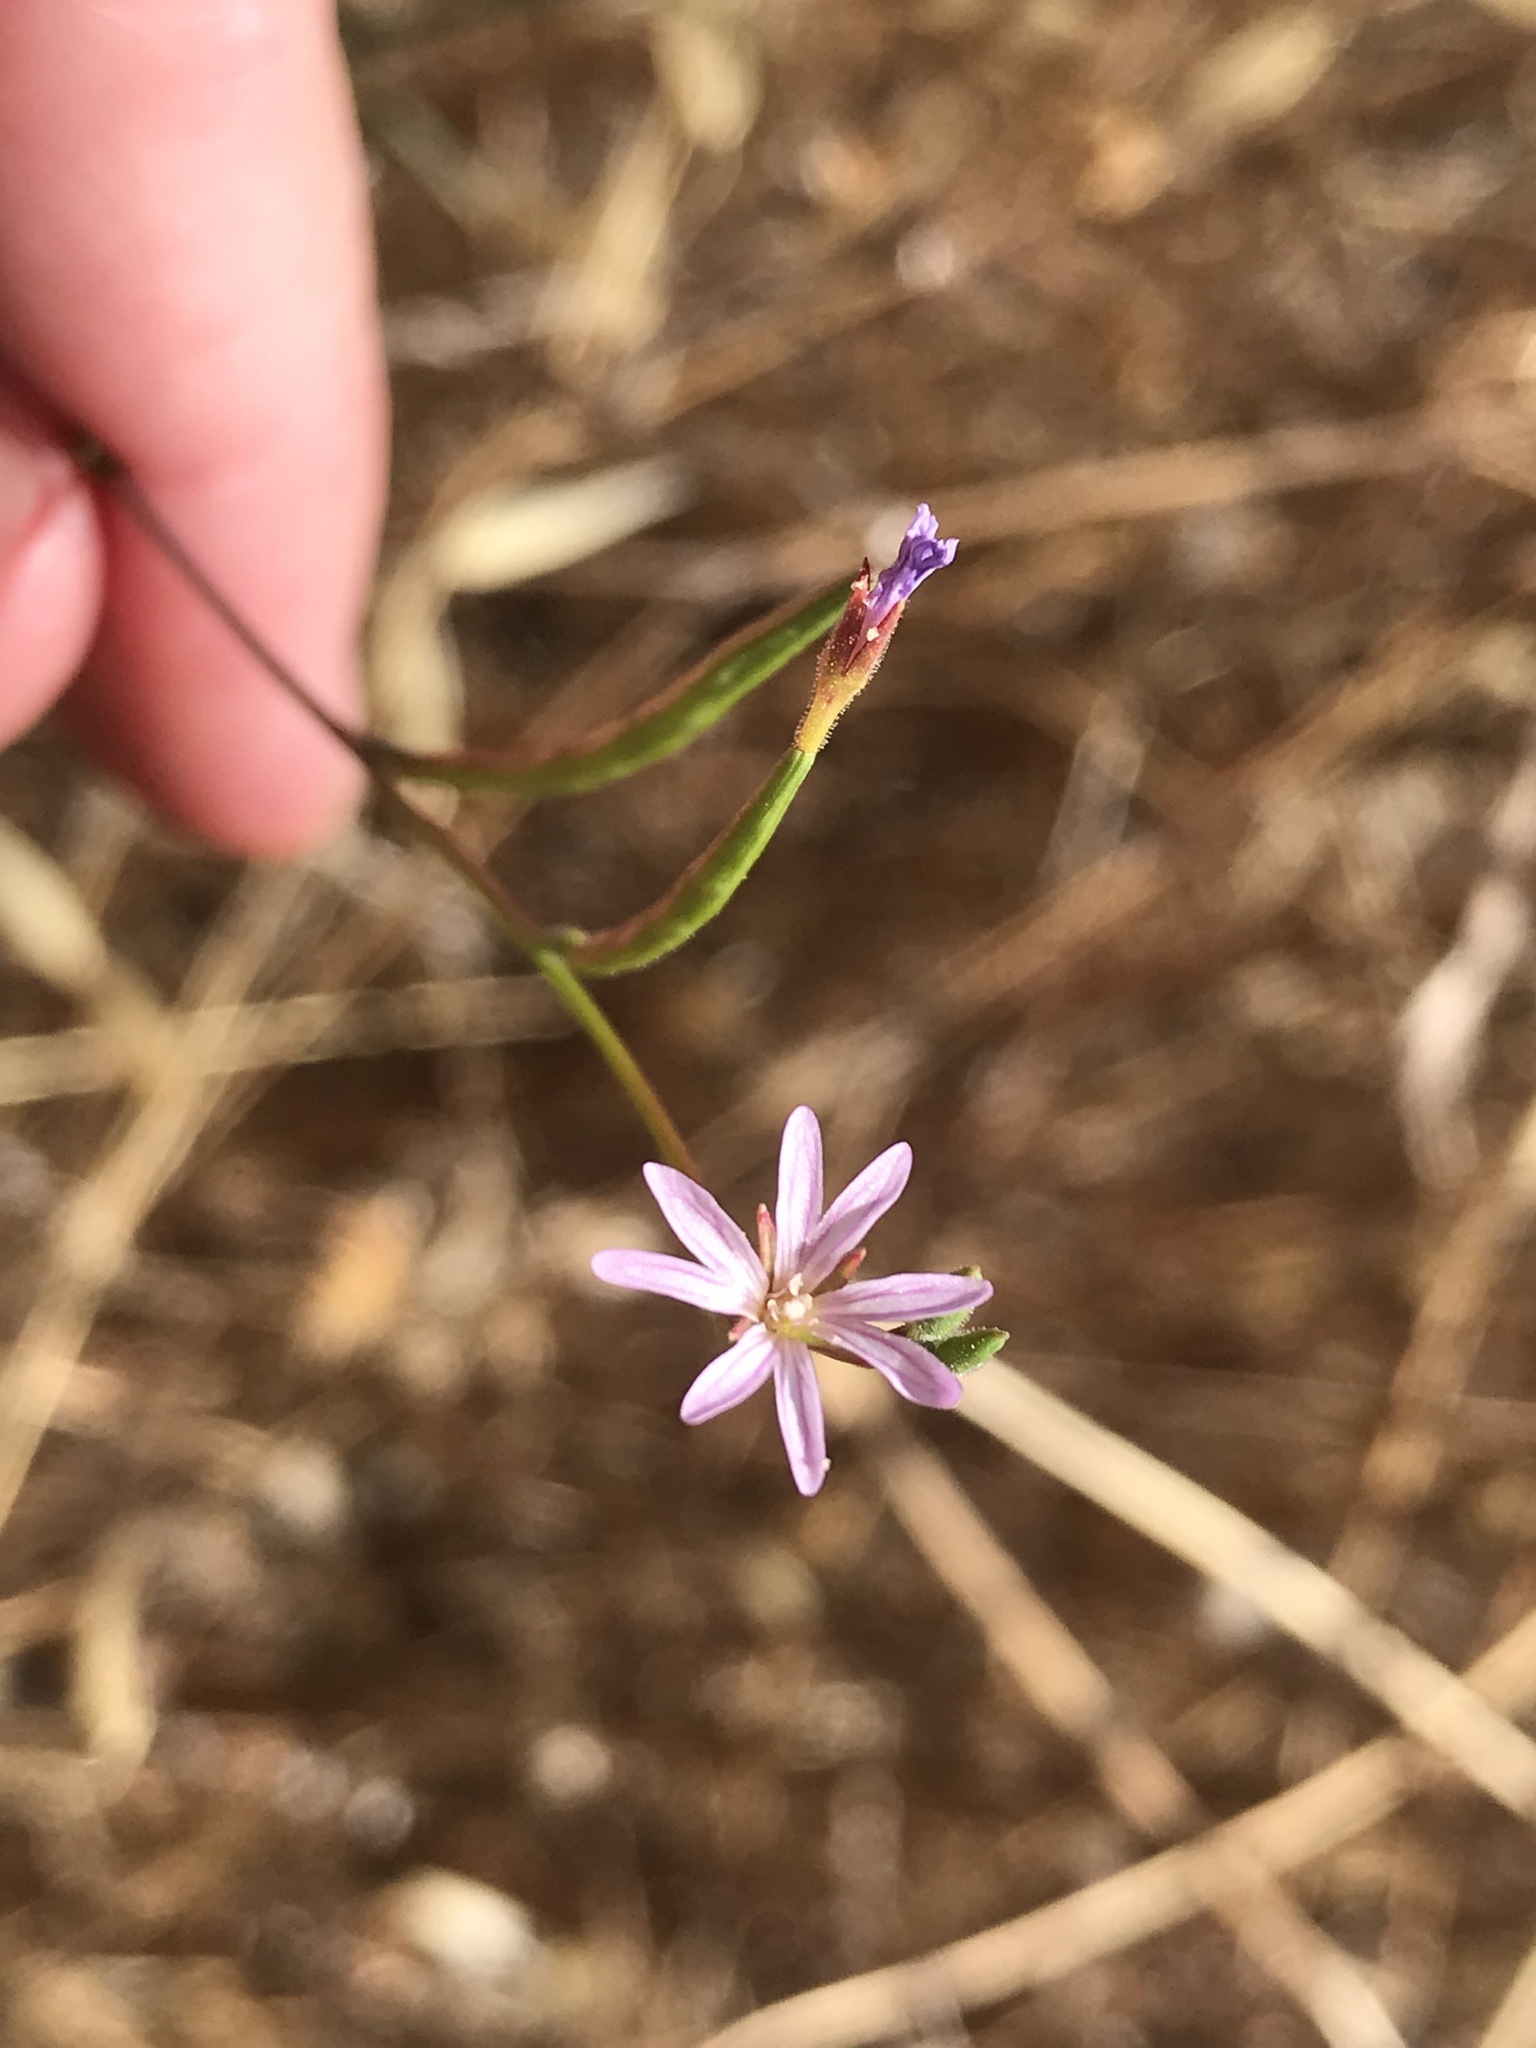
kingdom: Plantae
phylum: Tracheophyta
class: Magnoliopsida
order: Myrtales
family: Onagraceae
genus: Epilobium
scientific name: Epilobium brachycarpum
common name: Annual willowherb
